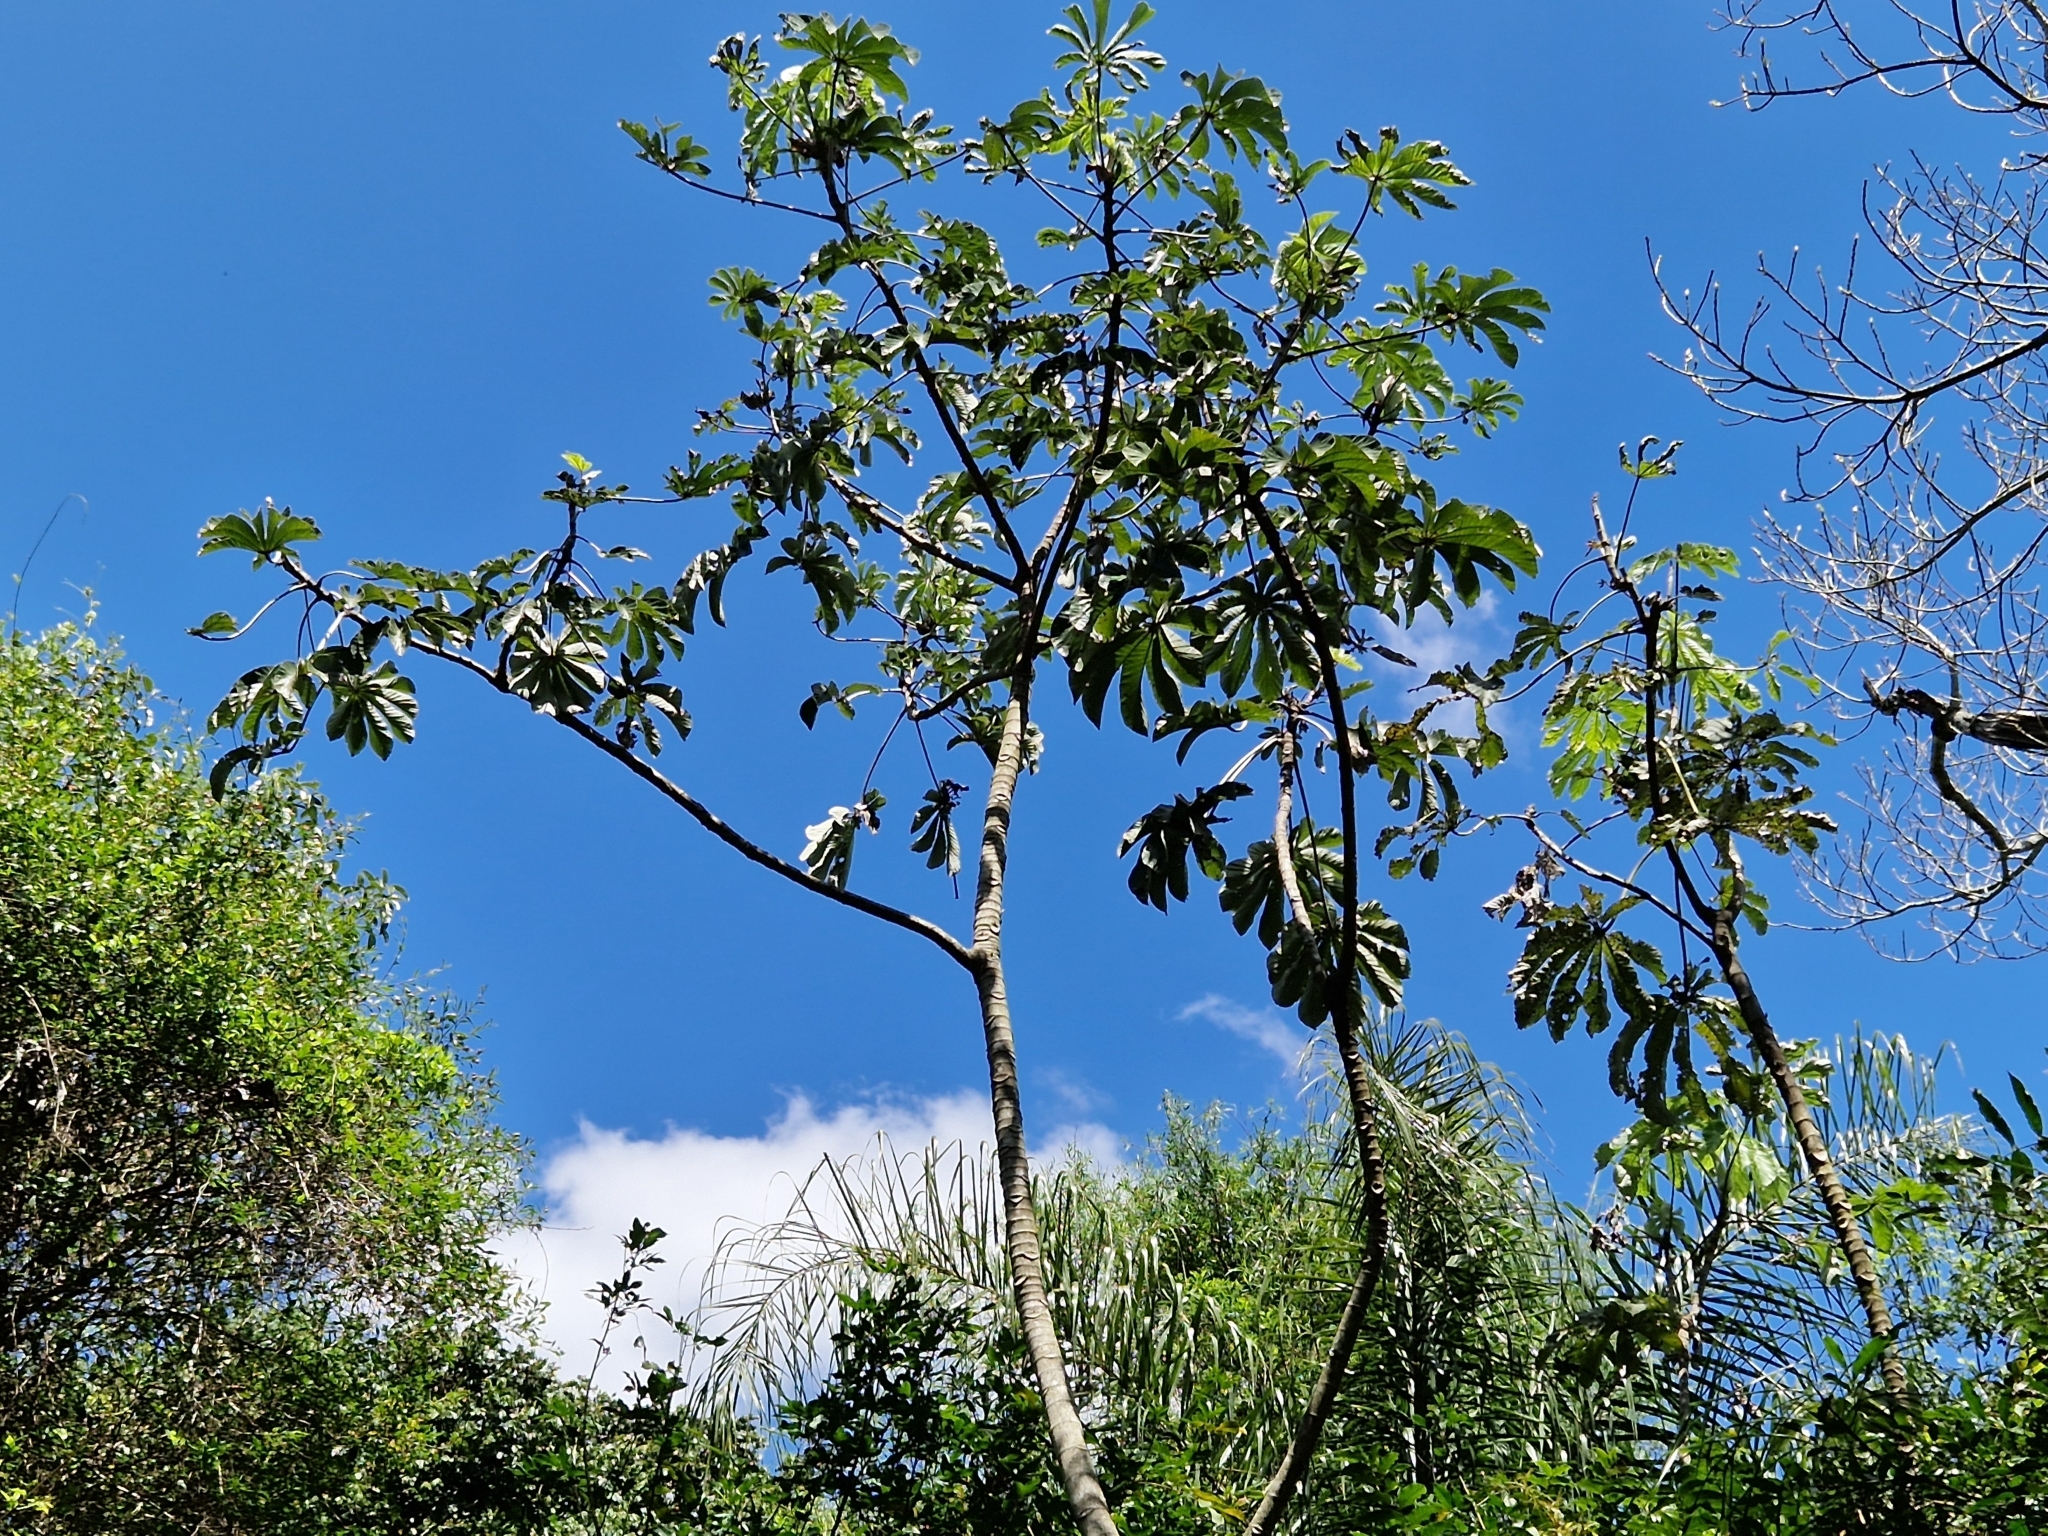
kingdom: Plantae
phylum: Tracheophyta
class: Magnoliopsida
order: Rosales
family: Urticaceae
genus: Cecropia
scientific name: Cecropia pachystachya
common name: Ambay pumpwood
